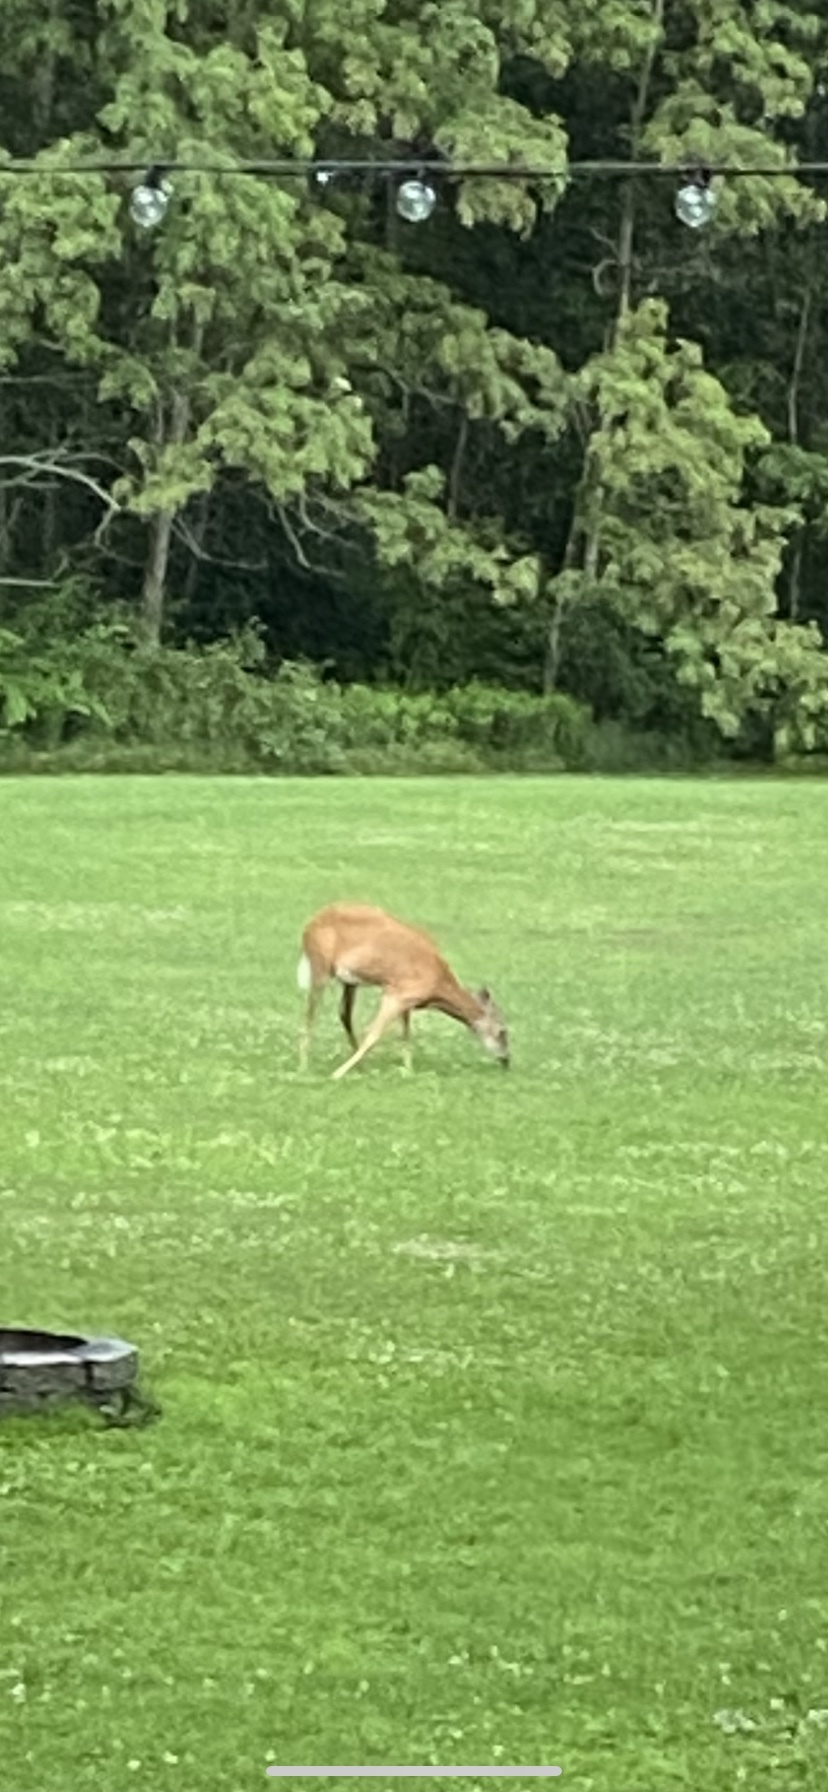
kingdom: Animalia
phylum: Chordata
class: Mammalia
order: Artiodactyla
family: Cervidae
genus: Odocoileus
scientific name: Odocoileus virginianus
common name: White-tailed deer
